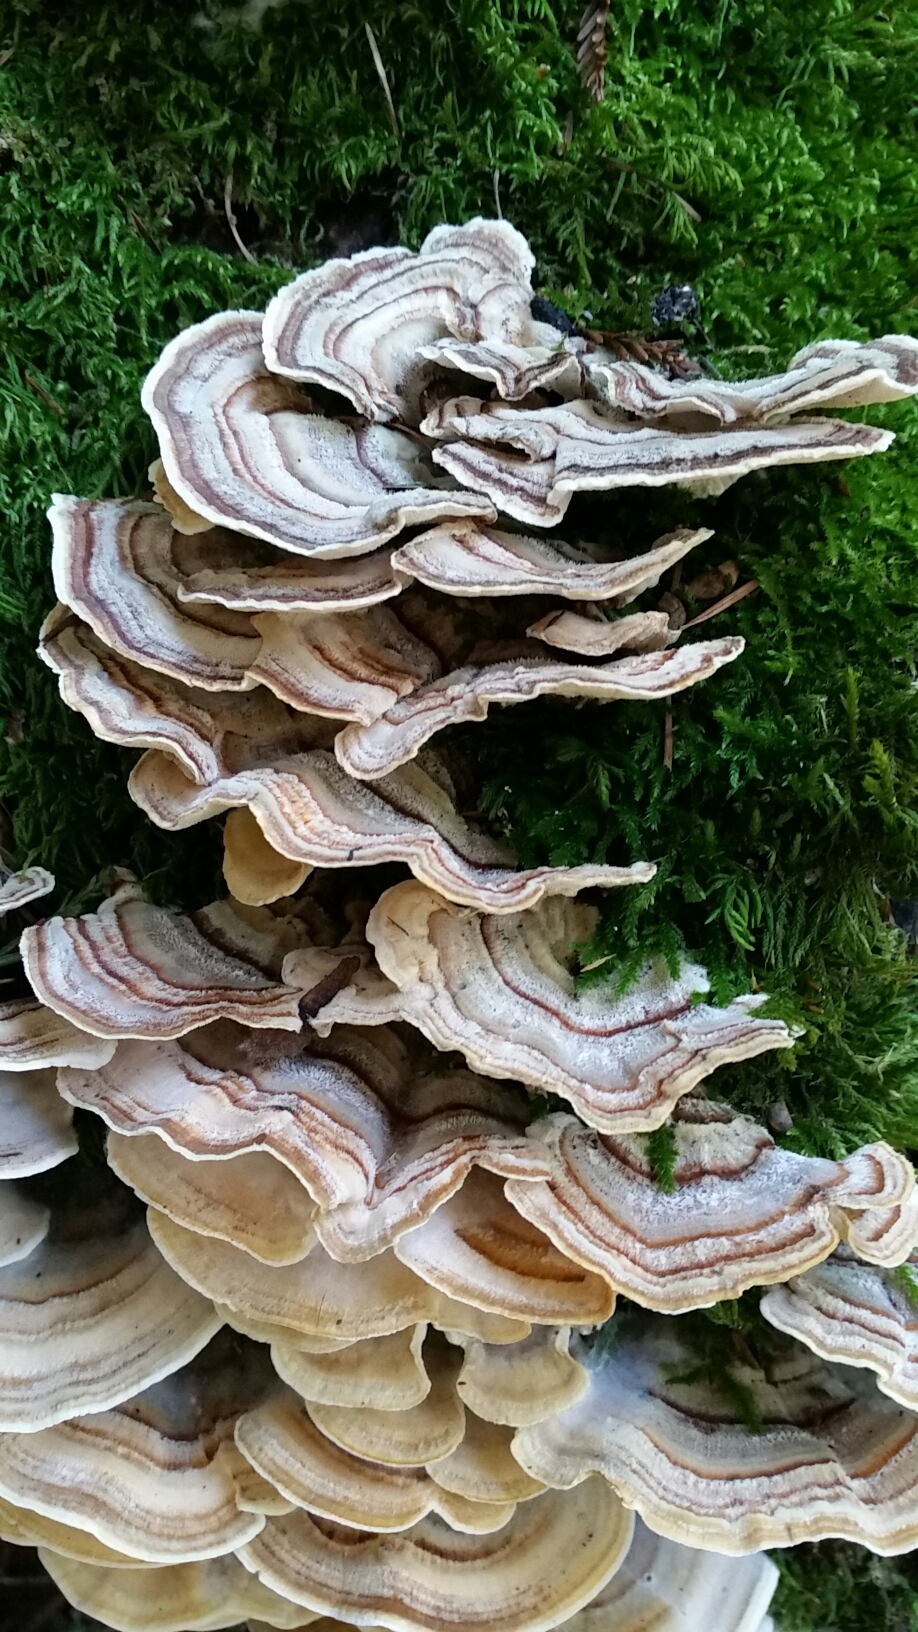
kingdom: Fungi
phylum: Basidiomycota
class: Agaricomycetes
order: Polyporales
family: Polyporaceae
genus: Trametes
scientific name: Trametes versicolor
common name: Turkeytail
